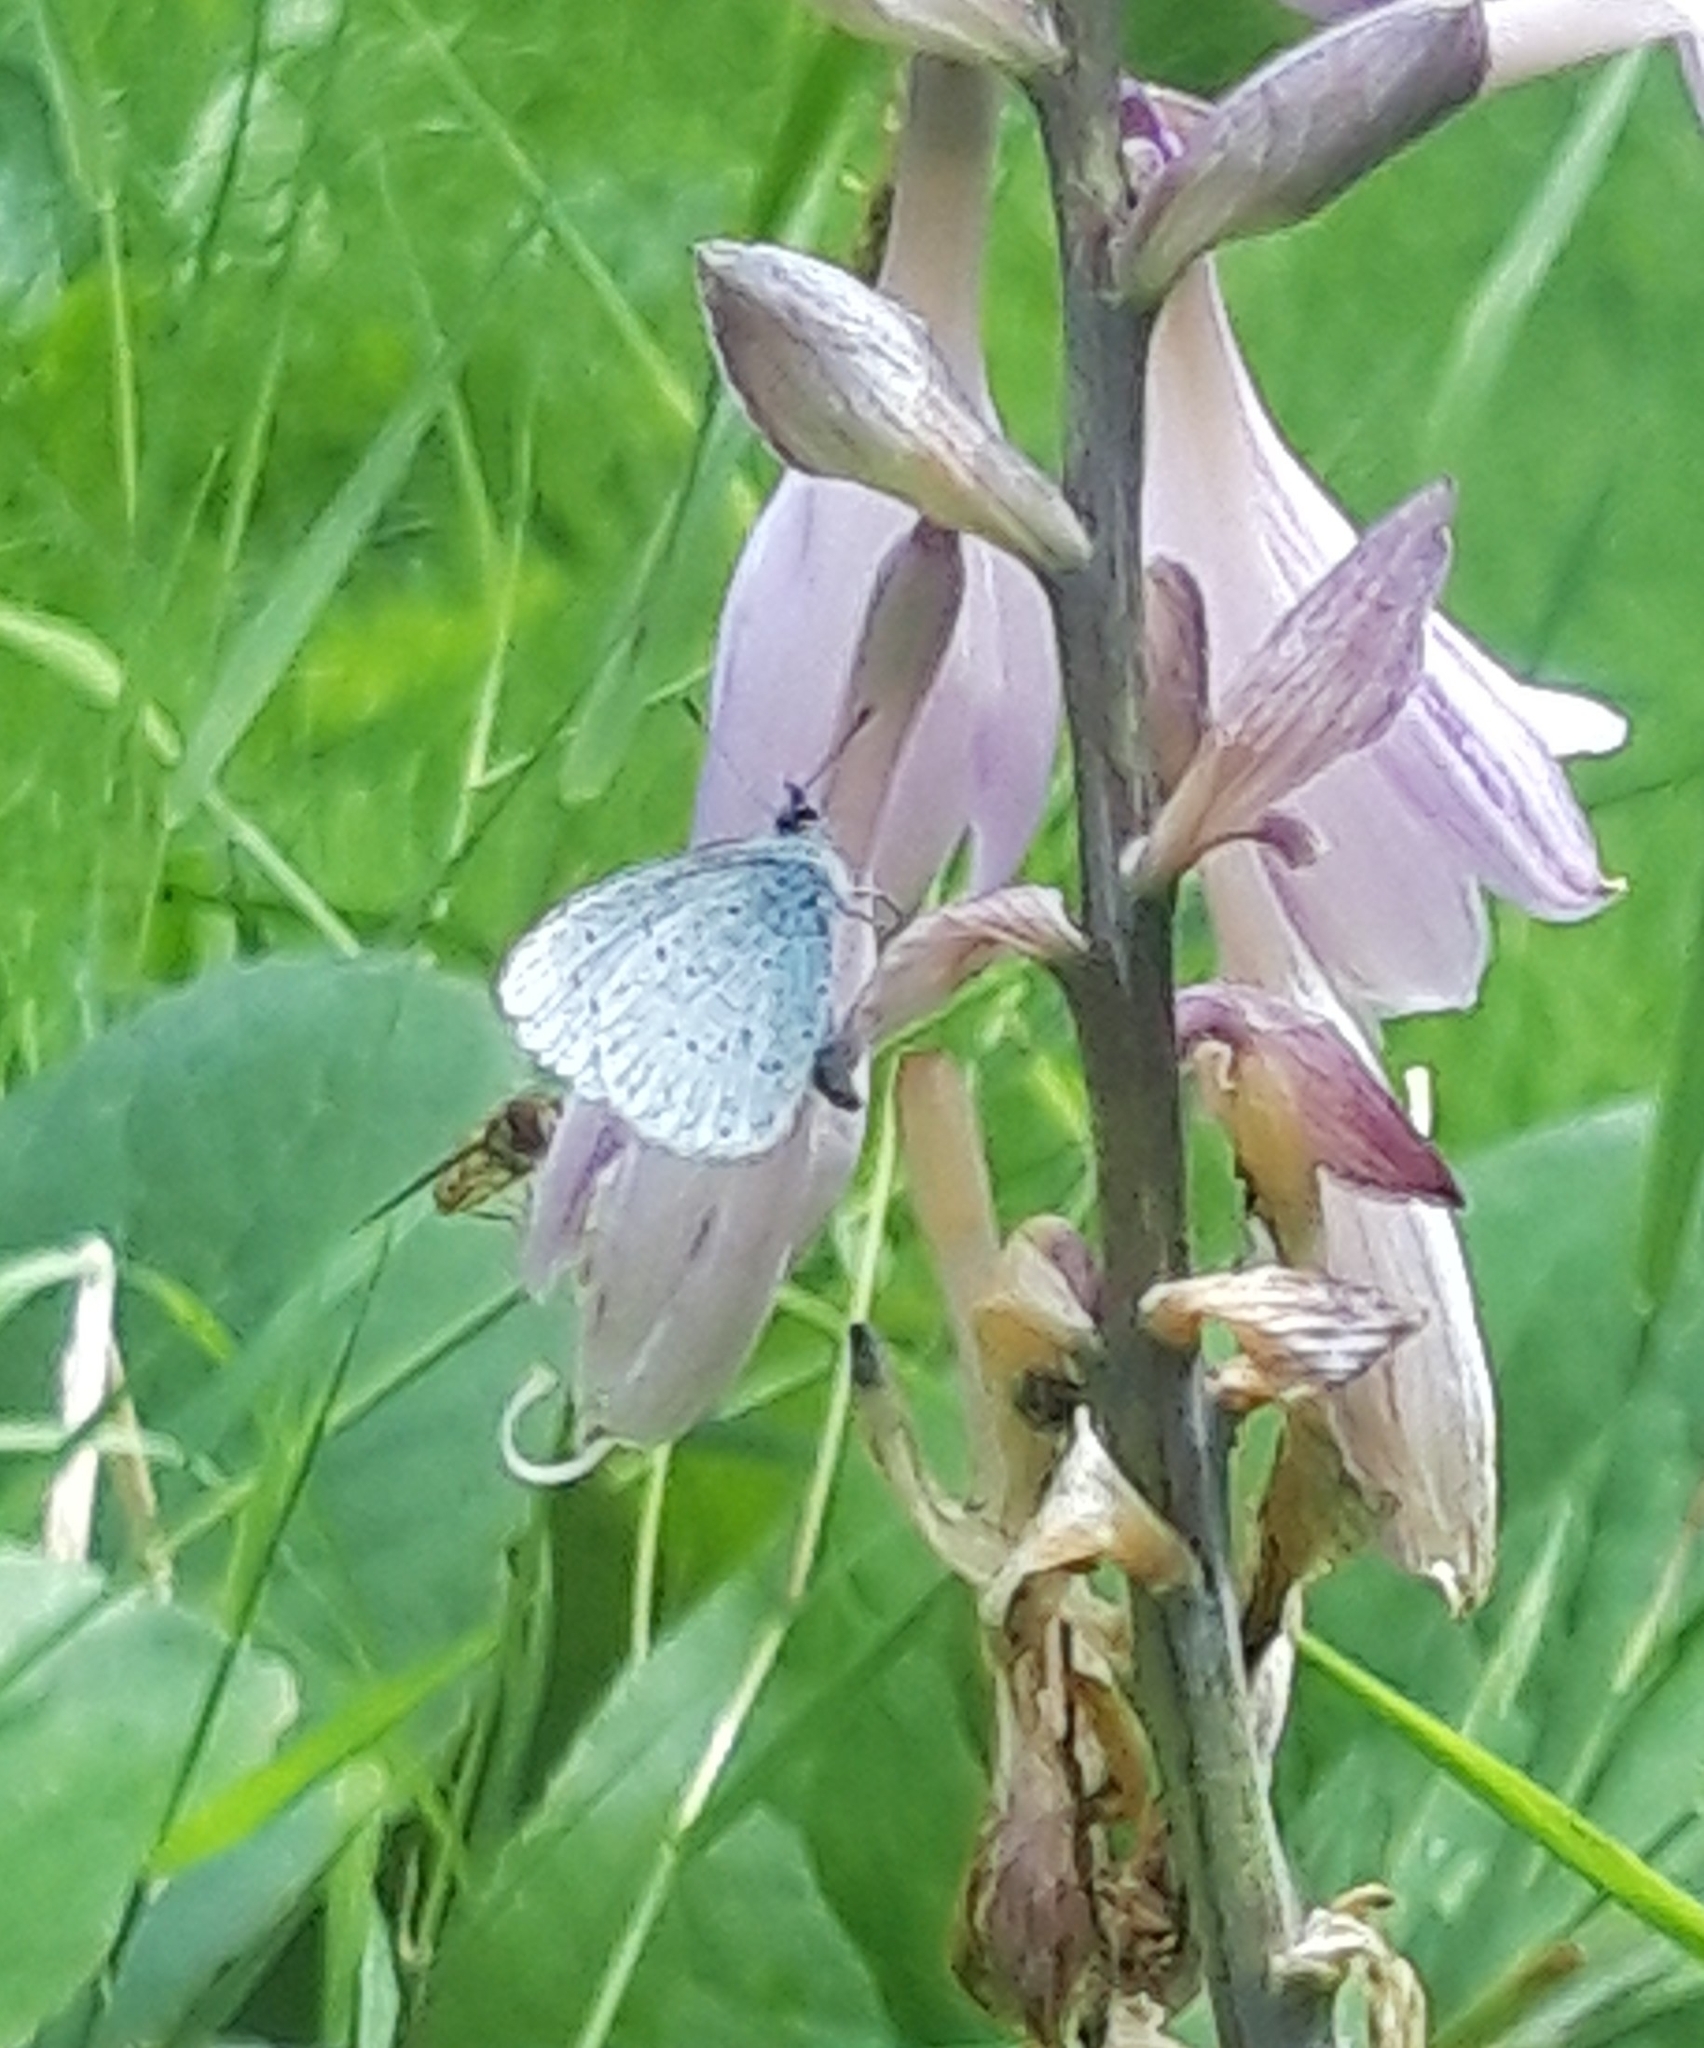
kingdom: Animalia
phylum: Arthropoda
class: Insecta
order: Lepidoptera
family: Lycaenidae
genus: Celastrina
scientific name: Celastrina argiolus
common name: Holly blue
